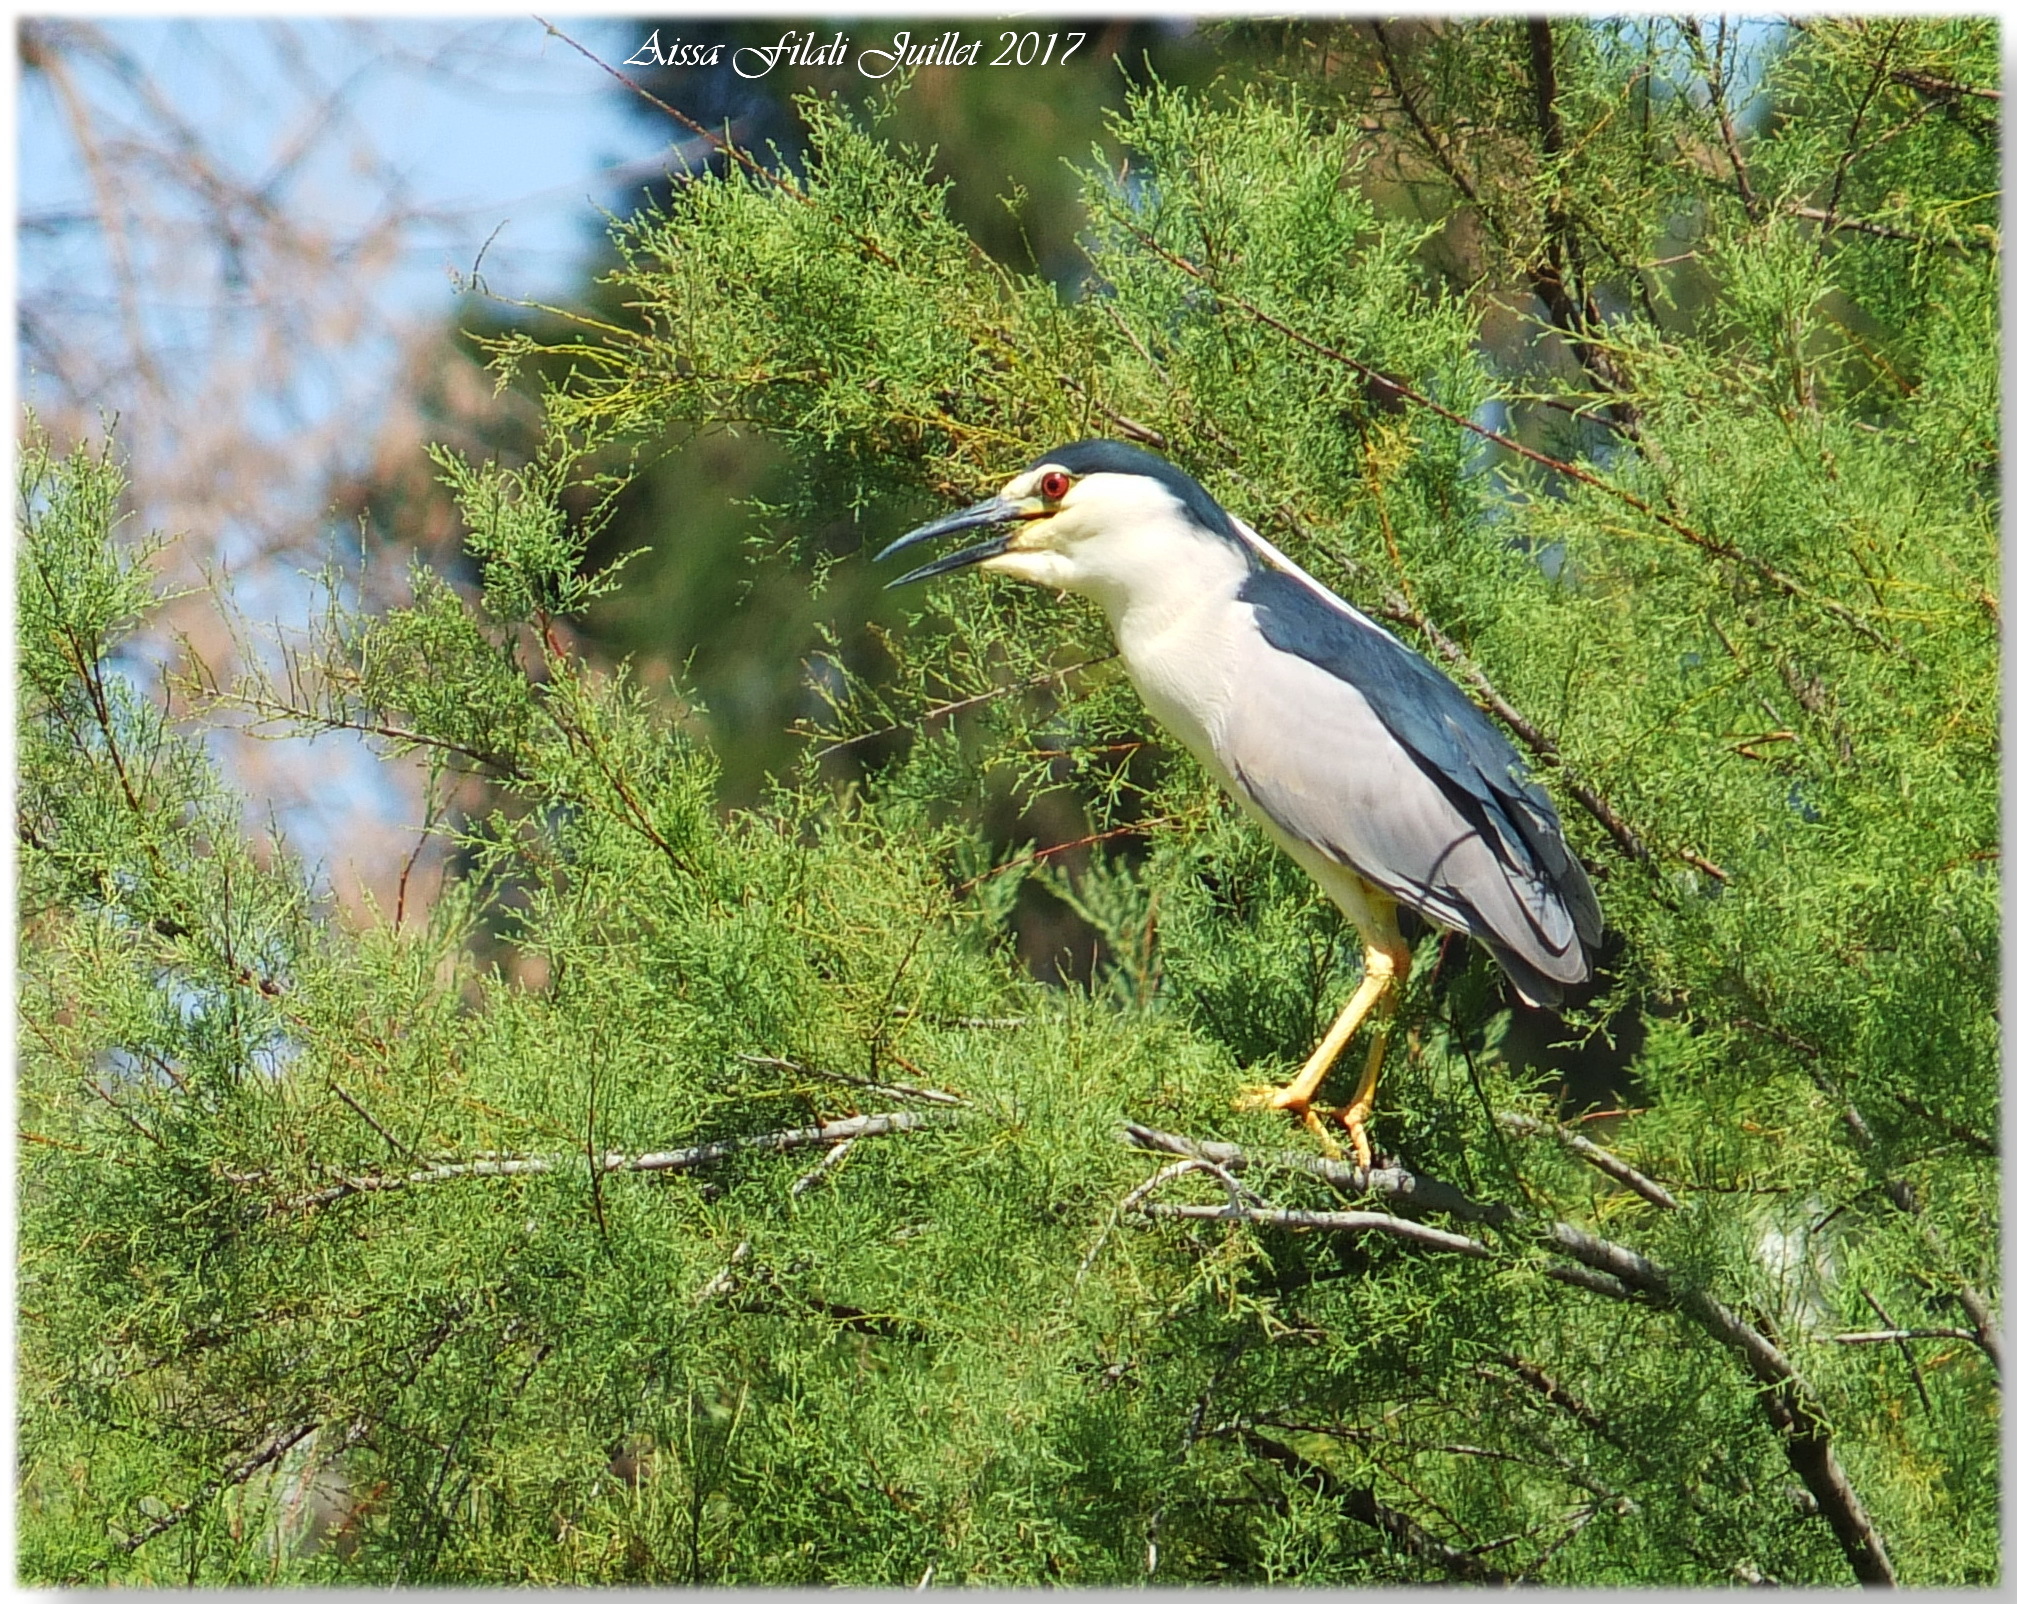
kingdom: Animalia
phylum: Chordata
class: Aves
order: Pelecaniformes
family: Ardeidae
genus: Nycticorax
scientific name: Nycticorax nycticorax
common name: Black-crowned night heron
